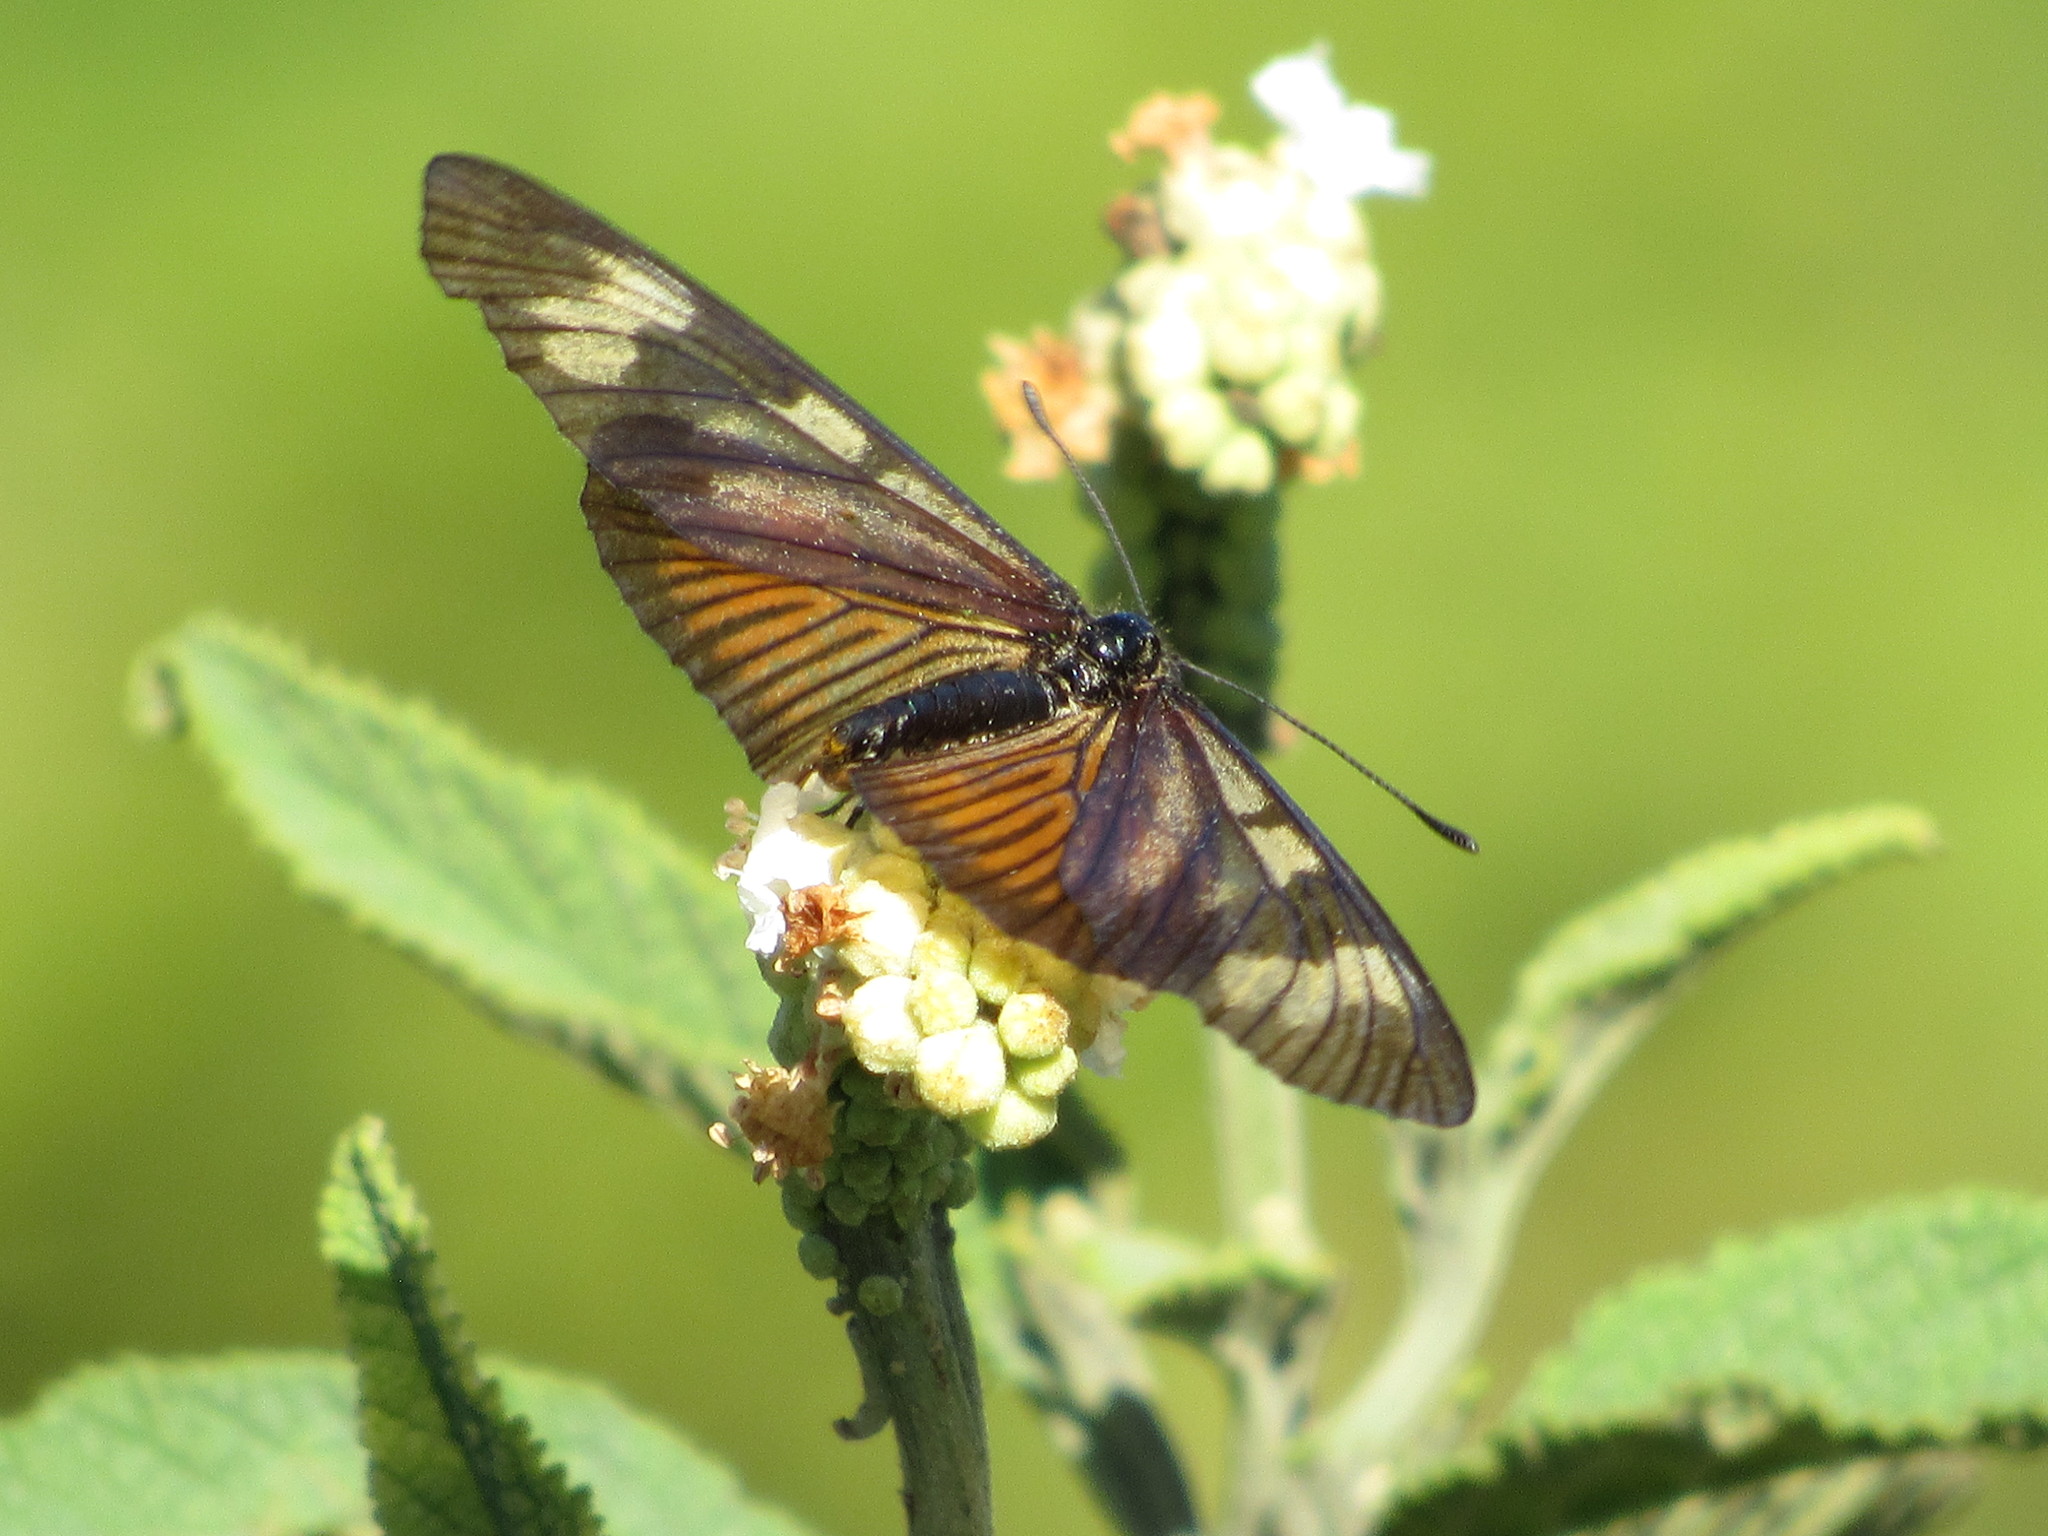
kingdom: Animalia
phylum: Arthropoda
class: Insecta
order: Lepidoptera
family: Nymphalidae
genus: Acraea
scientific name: Acraea discrepans
